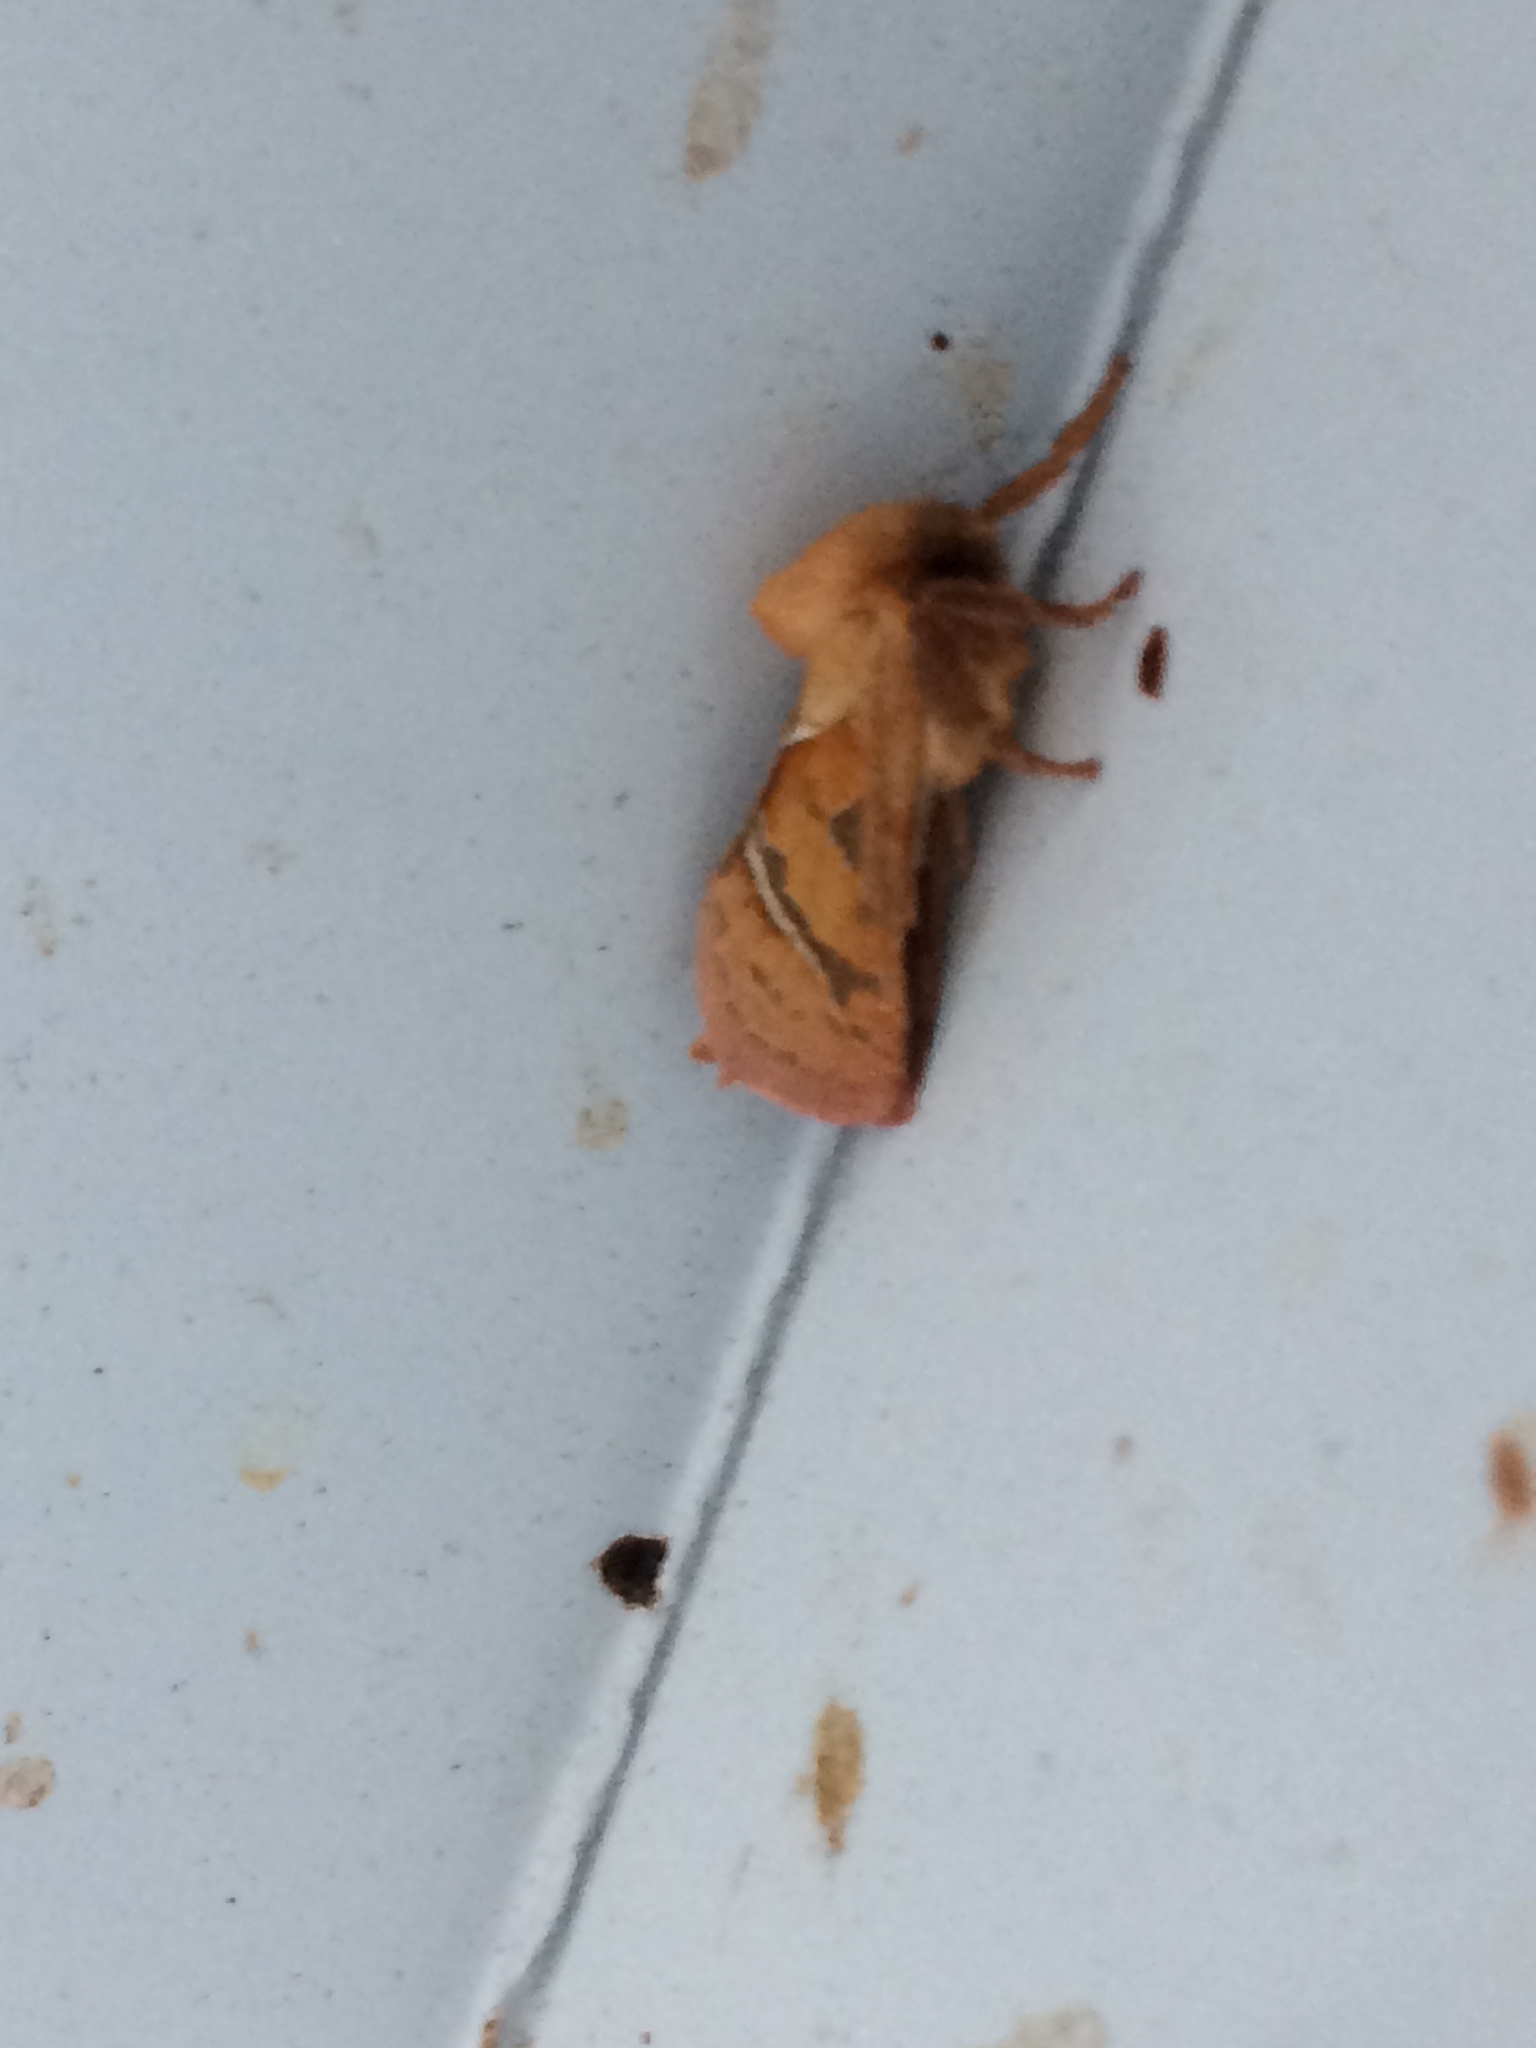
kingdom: Animalia
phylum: Arthropoda
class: Insecta
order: Lepidoptera
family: Hepialidae
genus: Triodia
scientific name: Triodia sylvina
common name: Orange swift
